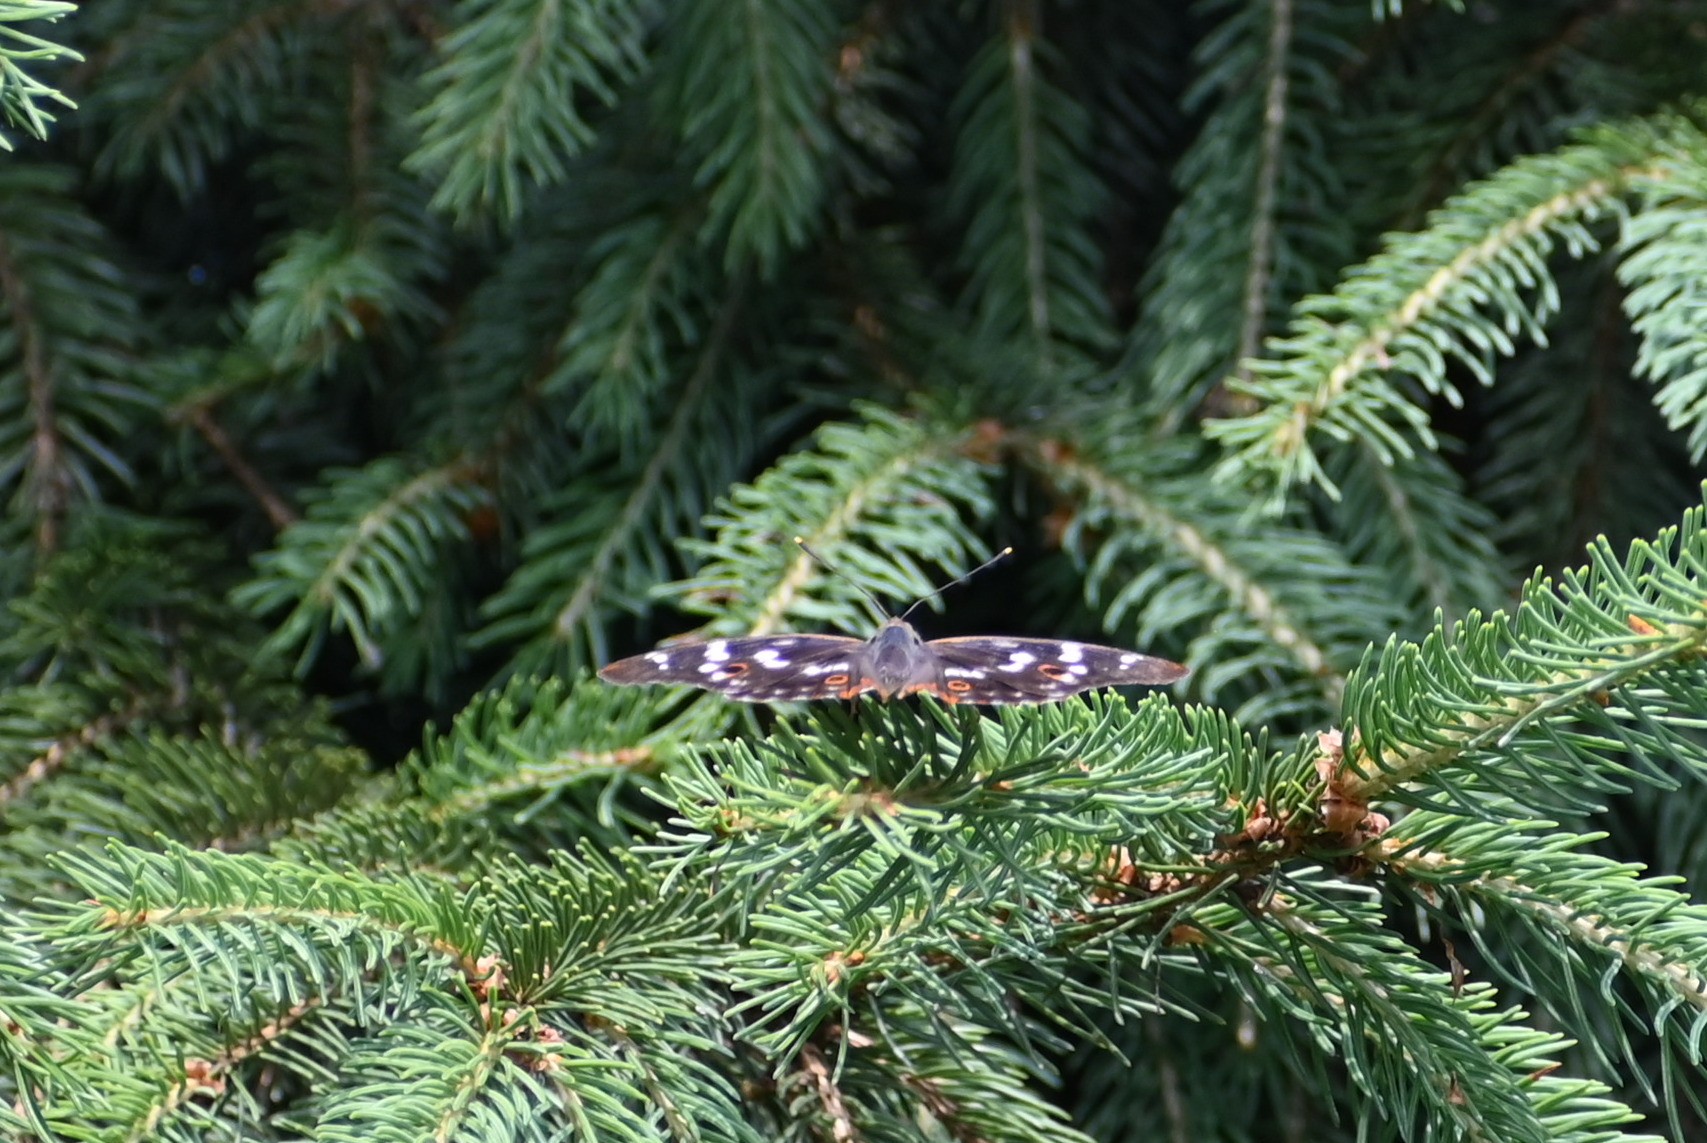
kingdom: Animalia
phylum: Arthropoda
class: Insecta
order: Lepidoptera
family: Nymphalidae
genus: Apatura
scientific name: Apatura ilia
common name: Lesser purple emperor
